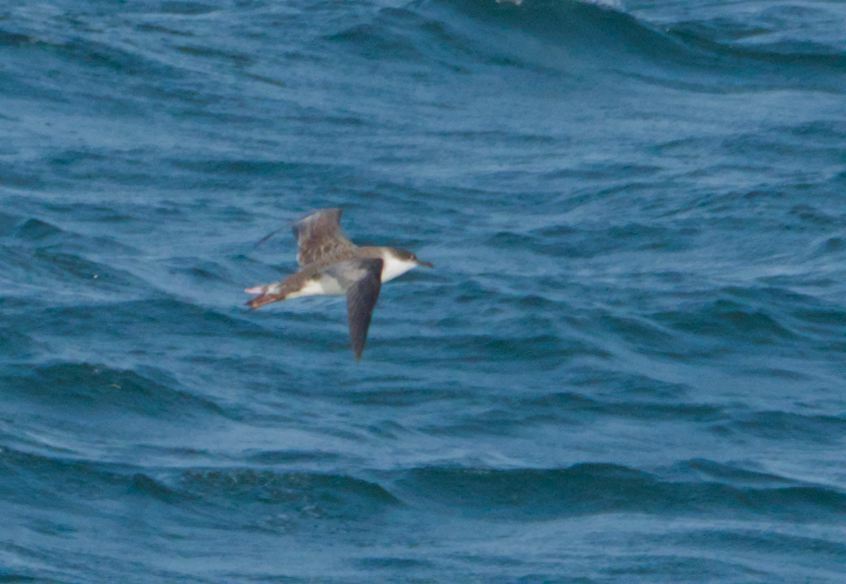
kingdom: Animalia
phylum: Chordata
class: Aves
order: Procellariiformes
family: Procellariidae
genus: Puffinus
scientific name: Puffinus gravis
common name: Great shearwater
